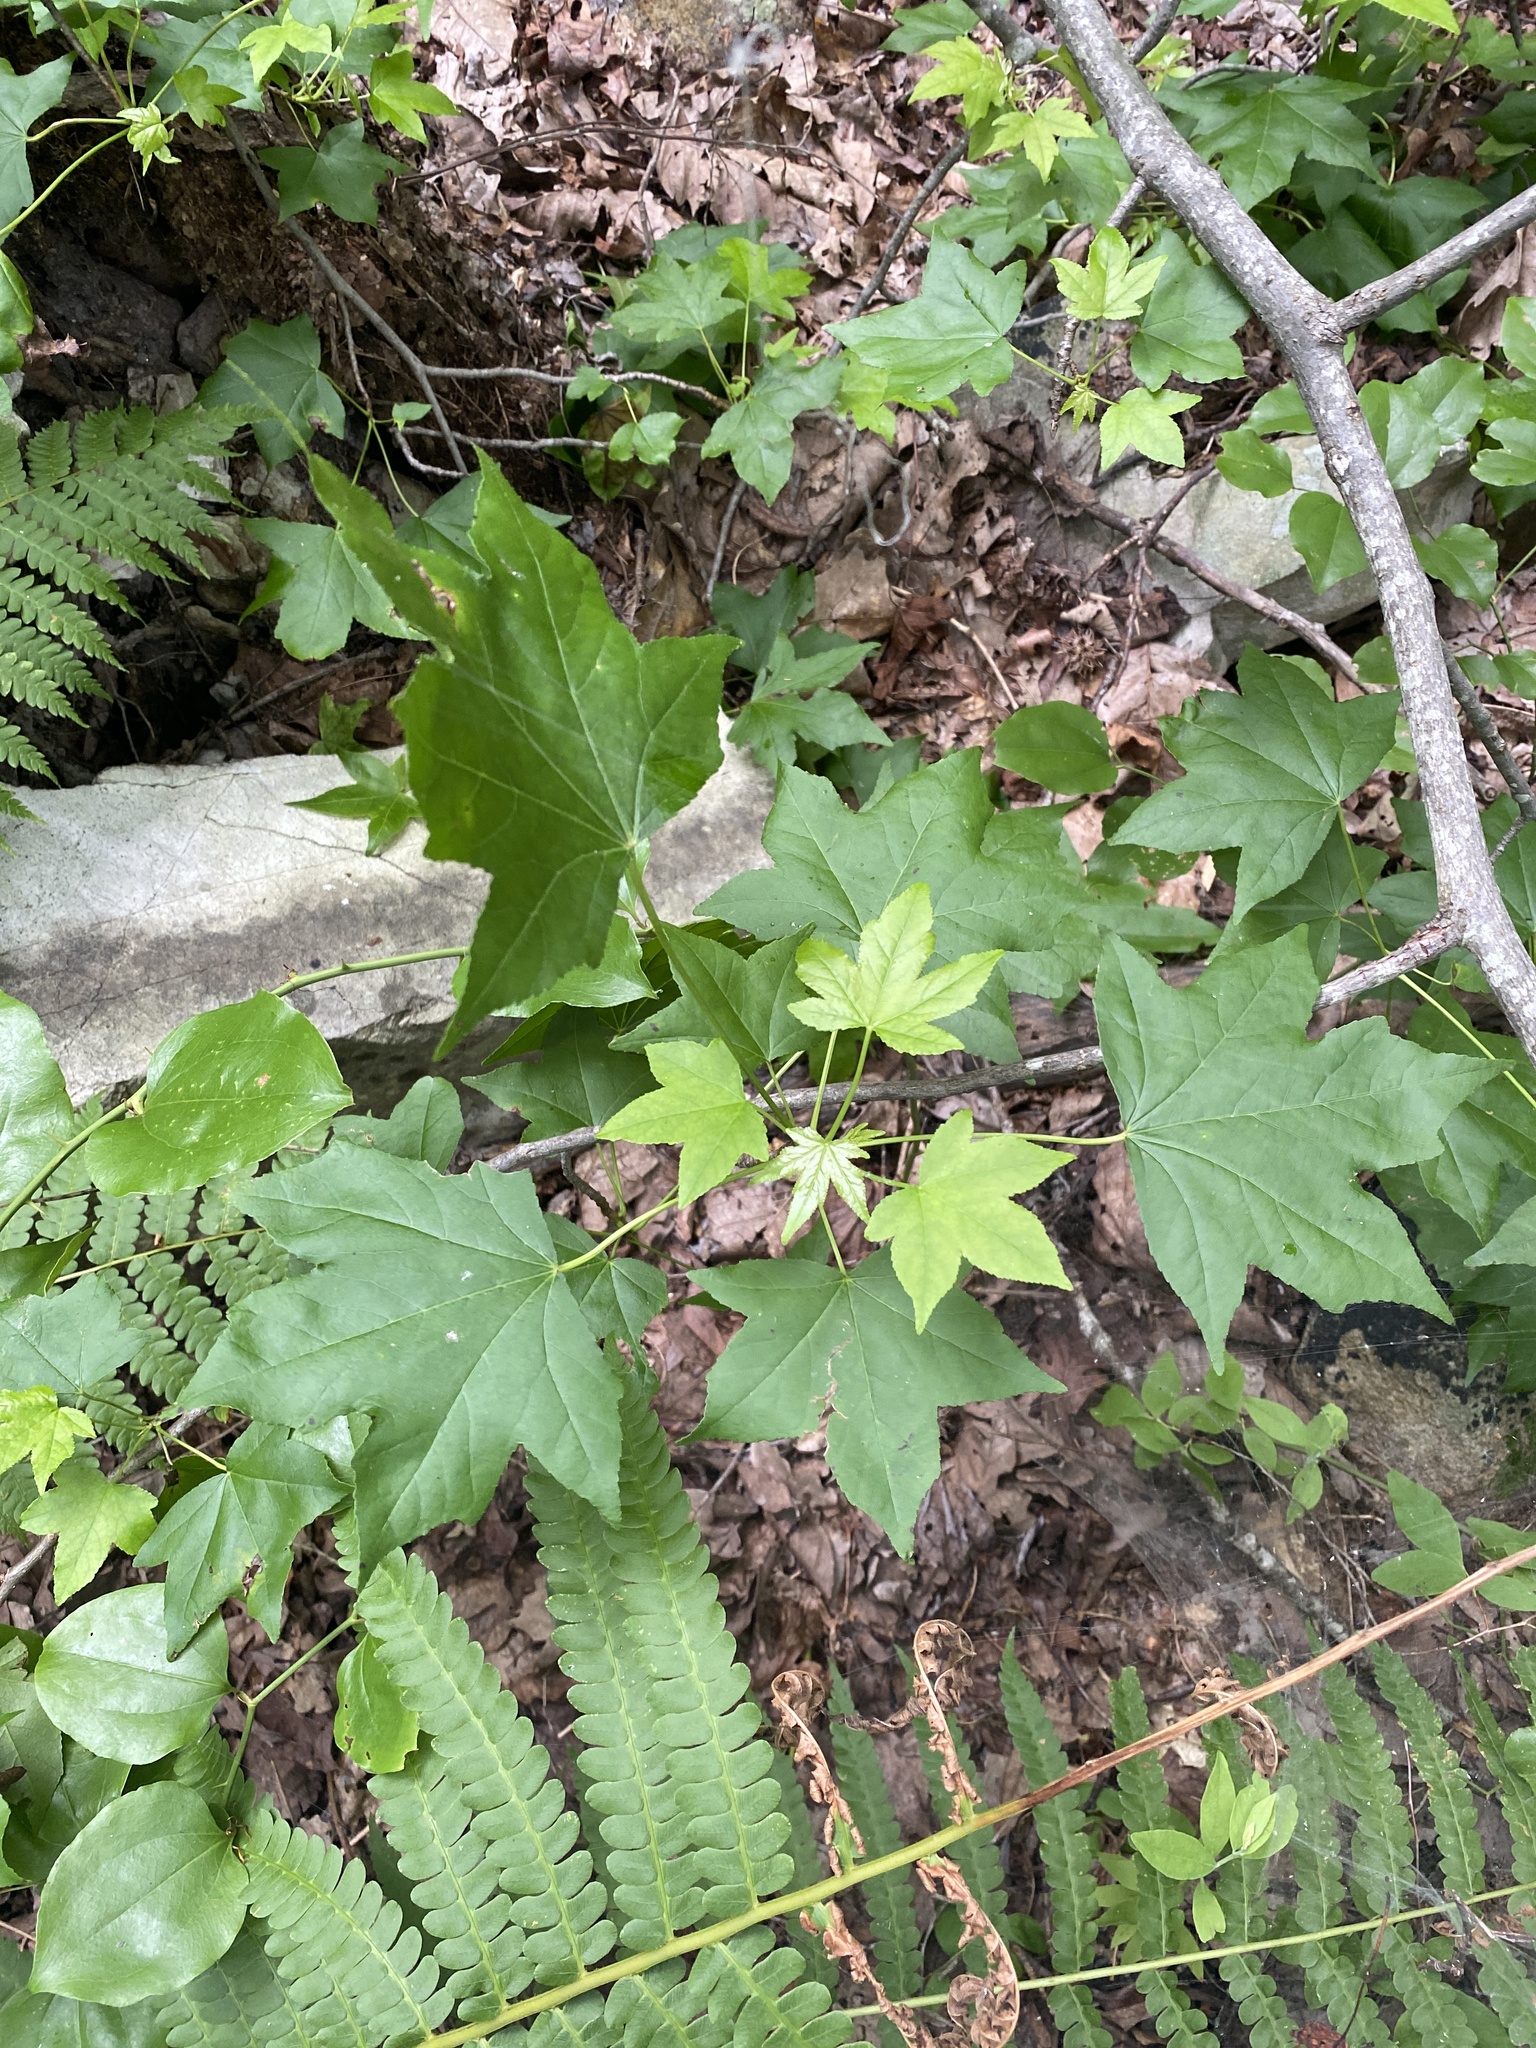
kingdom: Plantae
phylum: Tracheophyta
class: Magnoliopsida
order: Saxifragales
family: Altingiaceae
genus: Liquidambar
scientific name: Liquidambar styraciflua
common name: Sweet gum
